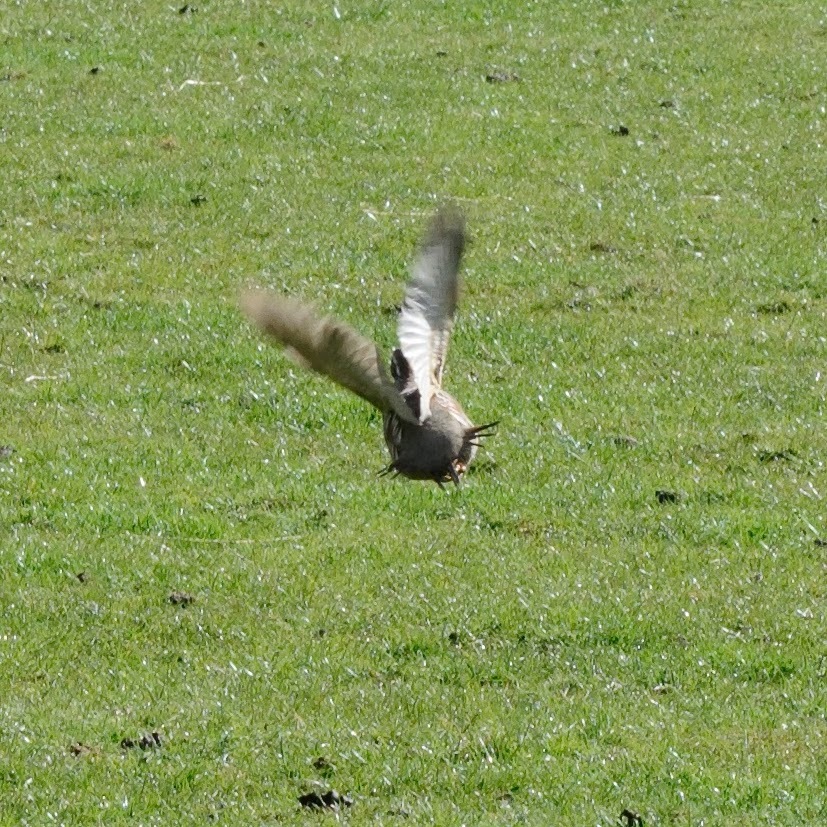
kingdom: Animalia
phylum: Chordata
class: Aves
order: Galliformes
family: Phasianidae
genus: Alectoris
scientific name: Alectoris rufa
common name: Red-legged partridge
